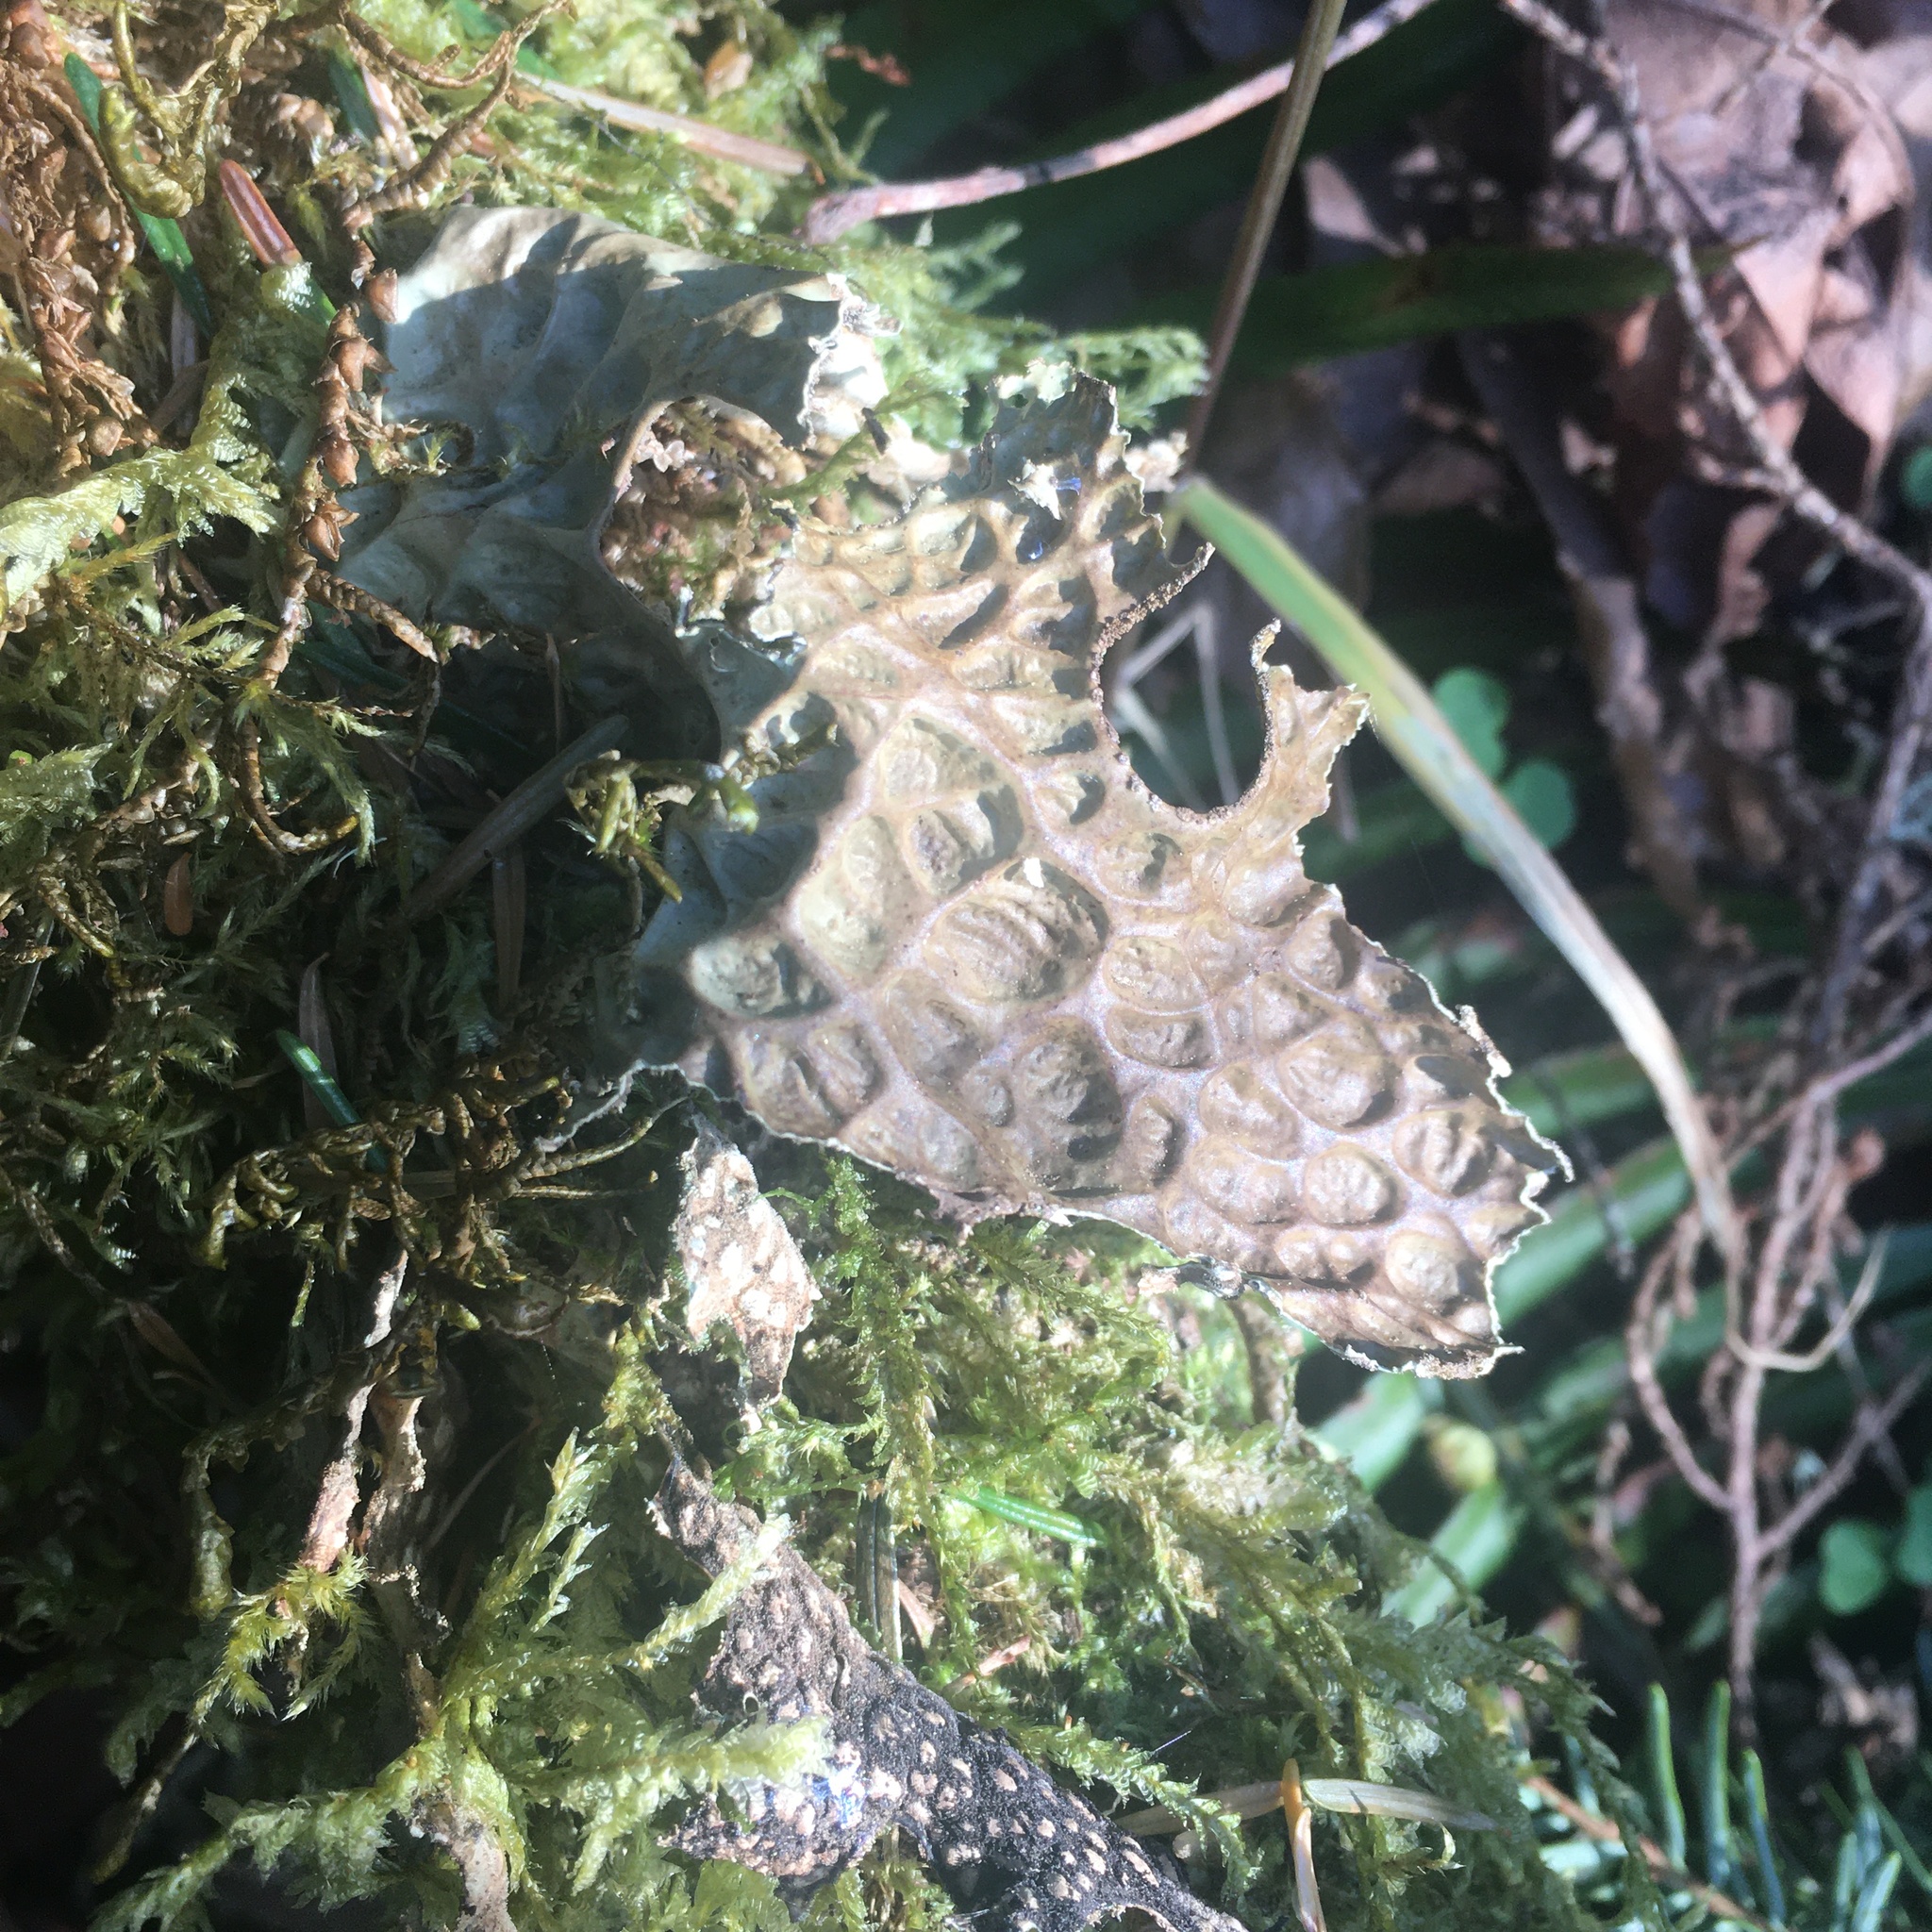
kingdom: Fungi
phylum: Ascomycota
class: Lecanoromycetes
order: Peltigerales
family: Lobariaceae
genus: Lobaria
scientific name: Lobaria pulmonaria
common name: Lungwort
